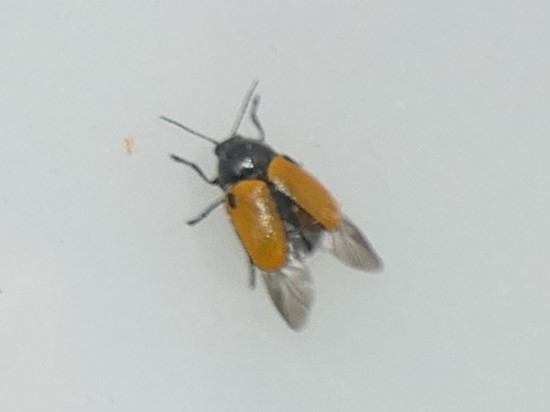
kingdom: Animalia
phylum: Arthropoda
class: Insecta
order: Coleoptera
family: Chrysomelidae
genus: Cryptocephalus
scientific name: Cryptocephalus rugicollis
